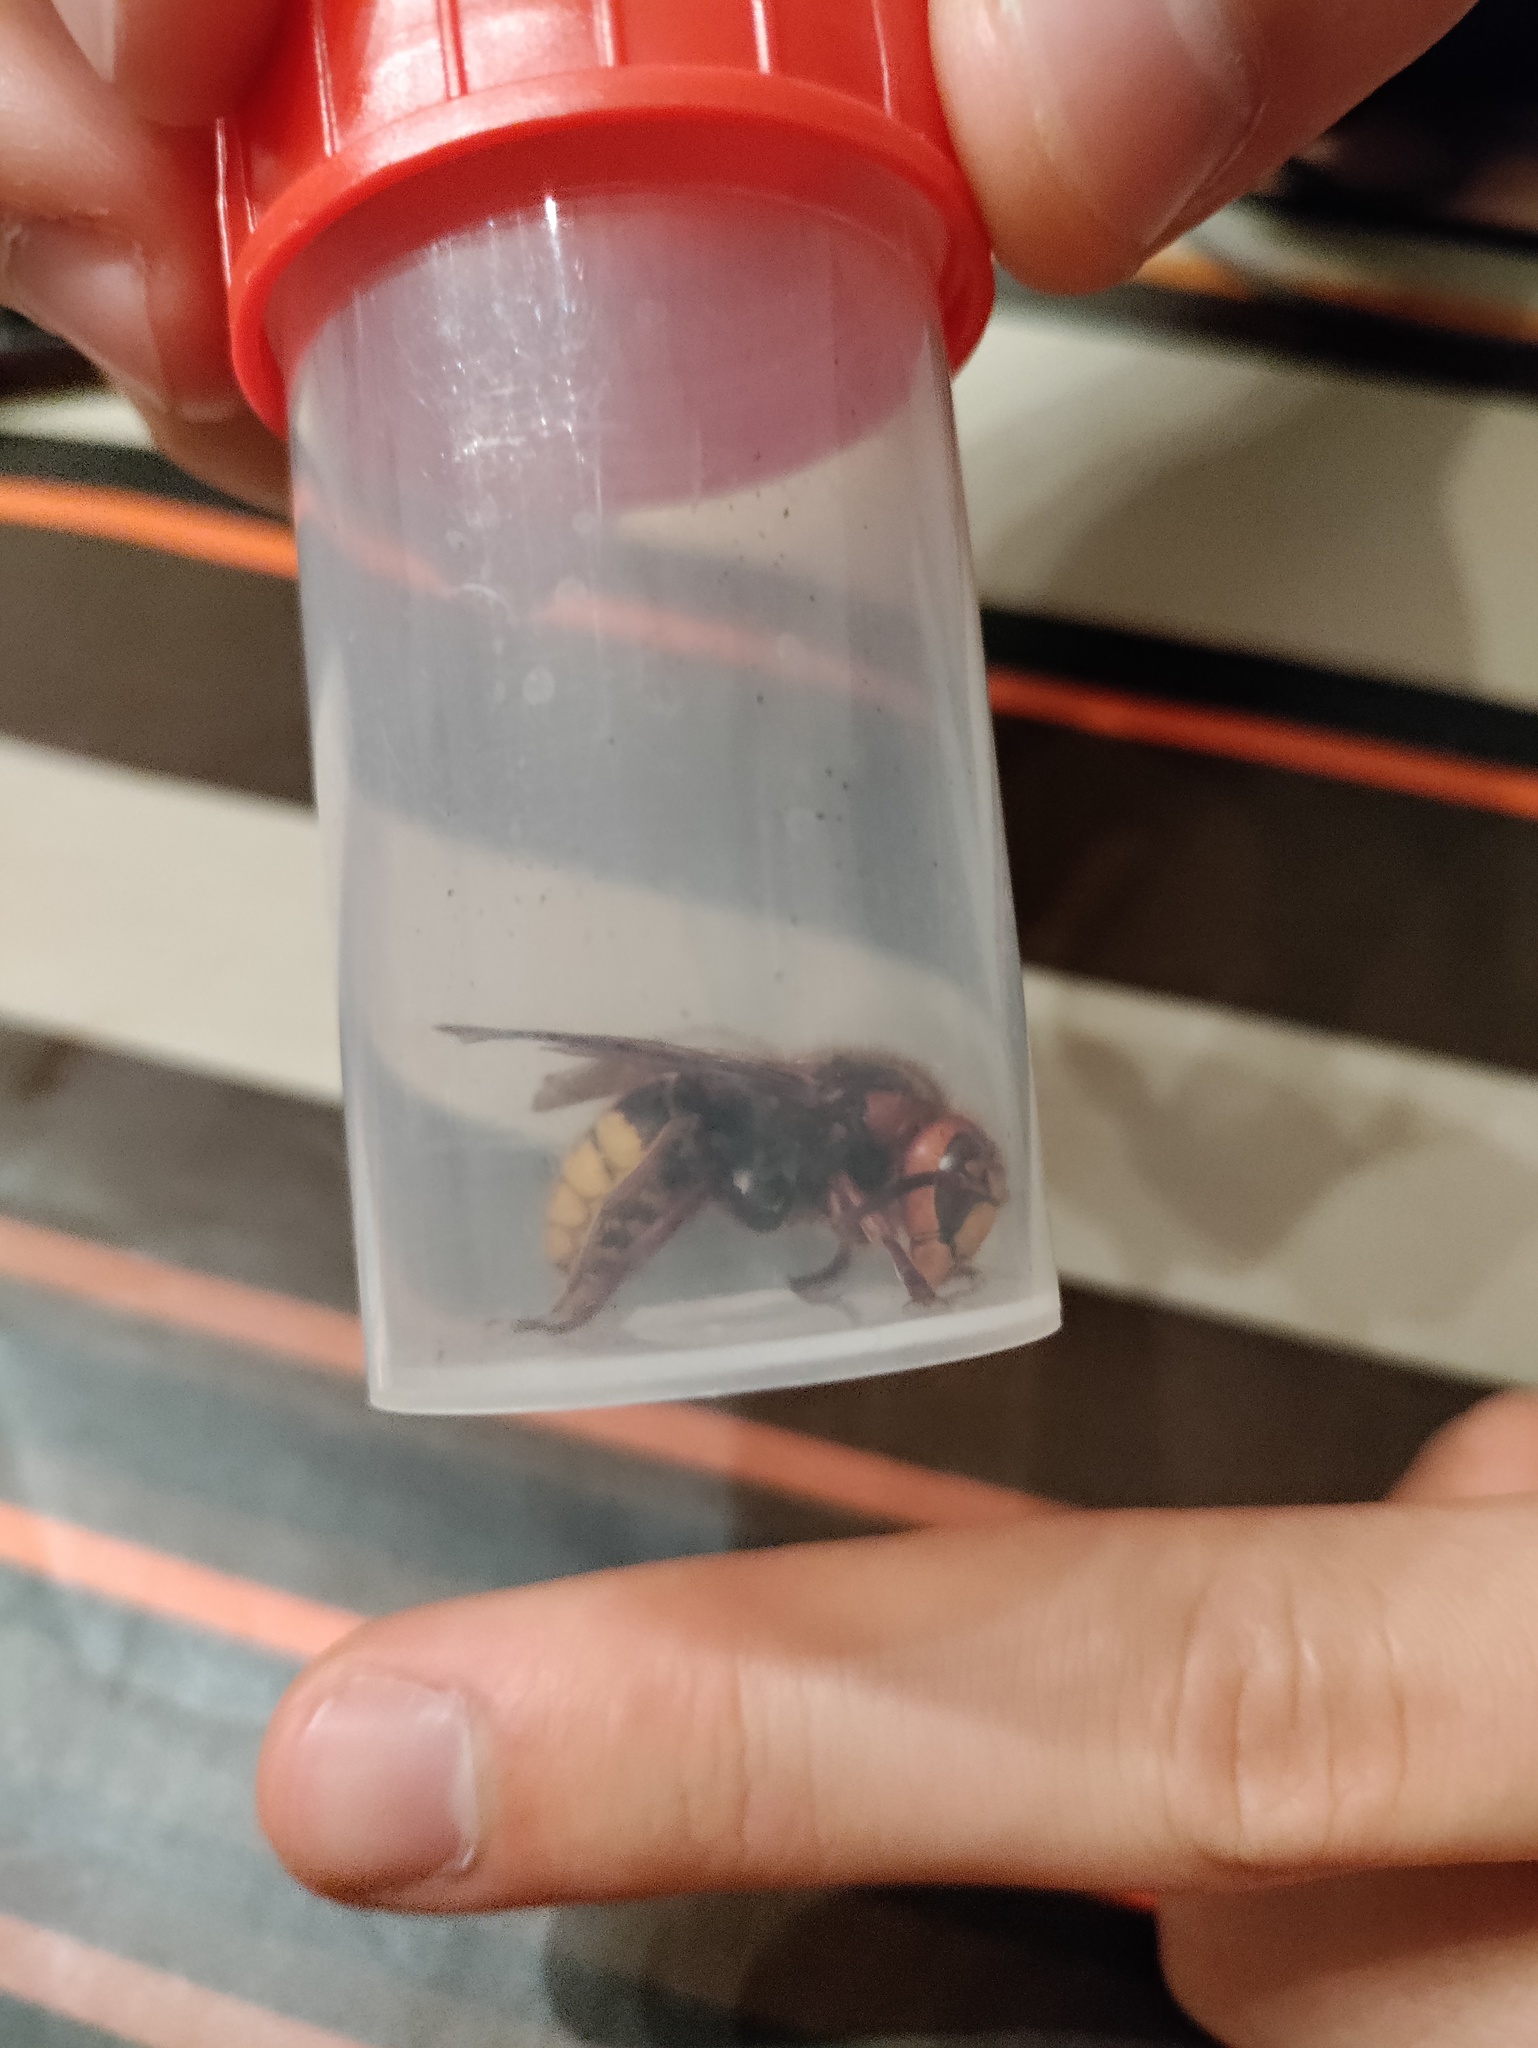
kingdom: Animalia
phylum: Arthropoda
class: Insecta
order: Hymenoptera
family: Vespidae
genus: Vespa
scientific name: Vespa crabro
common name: Hornet
